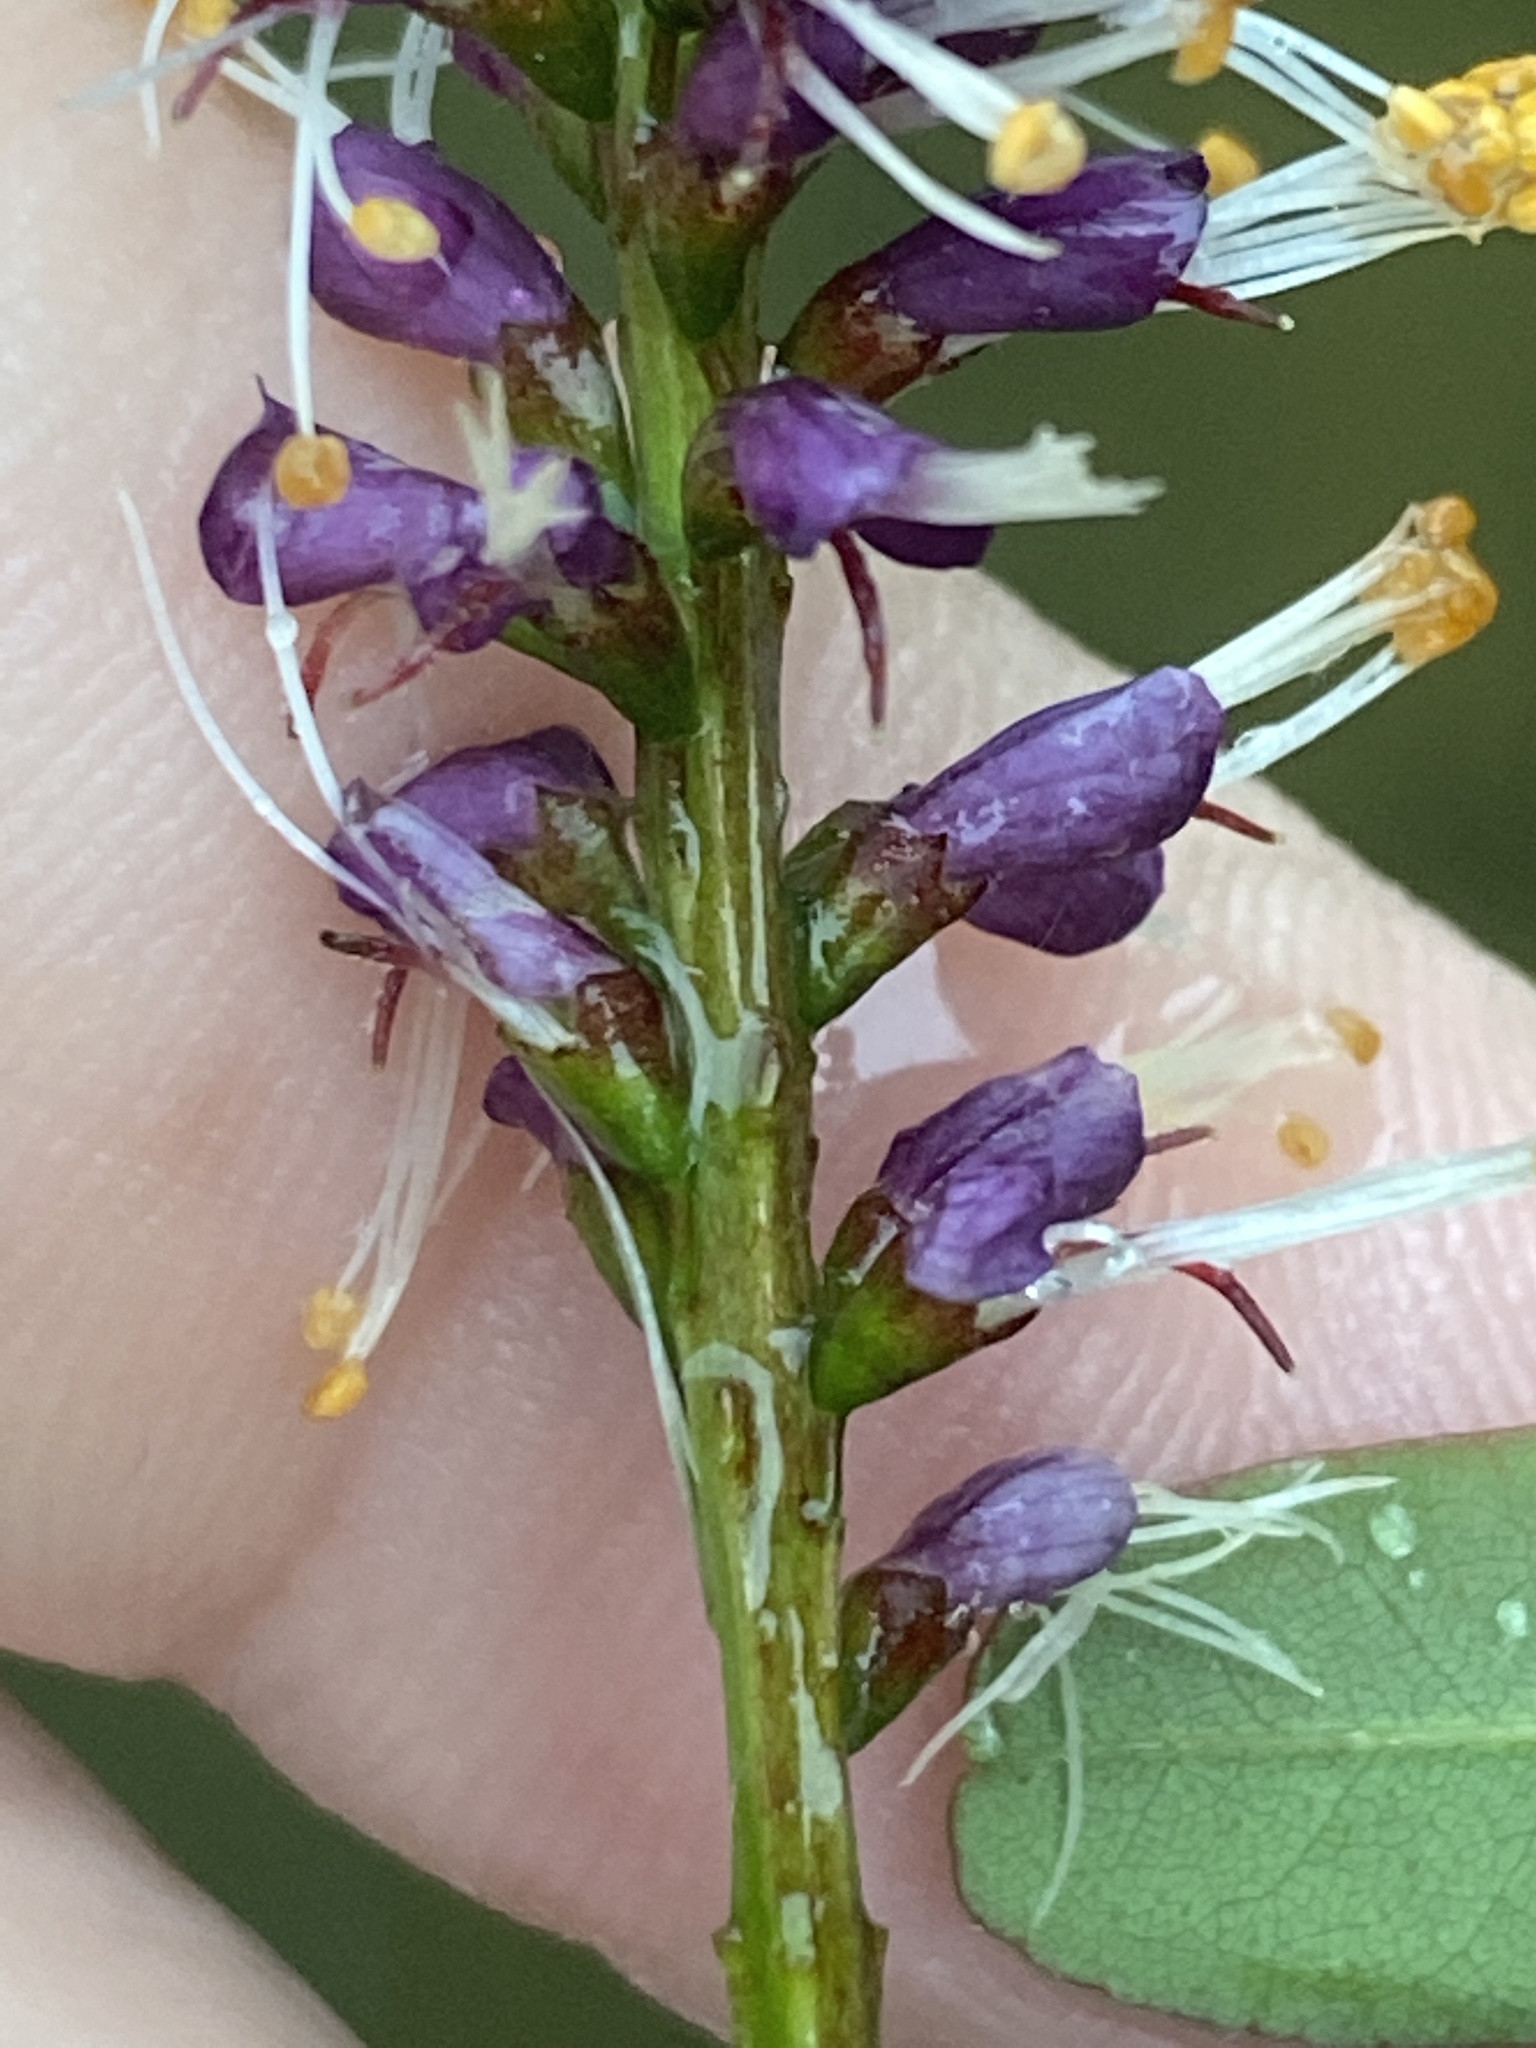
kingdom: Plantae
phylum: Tracheophyta
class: Magnoliopsida
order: Fabales
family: Fabaceae
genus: Amorpha
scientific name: Amorpha glabra
